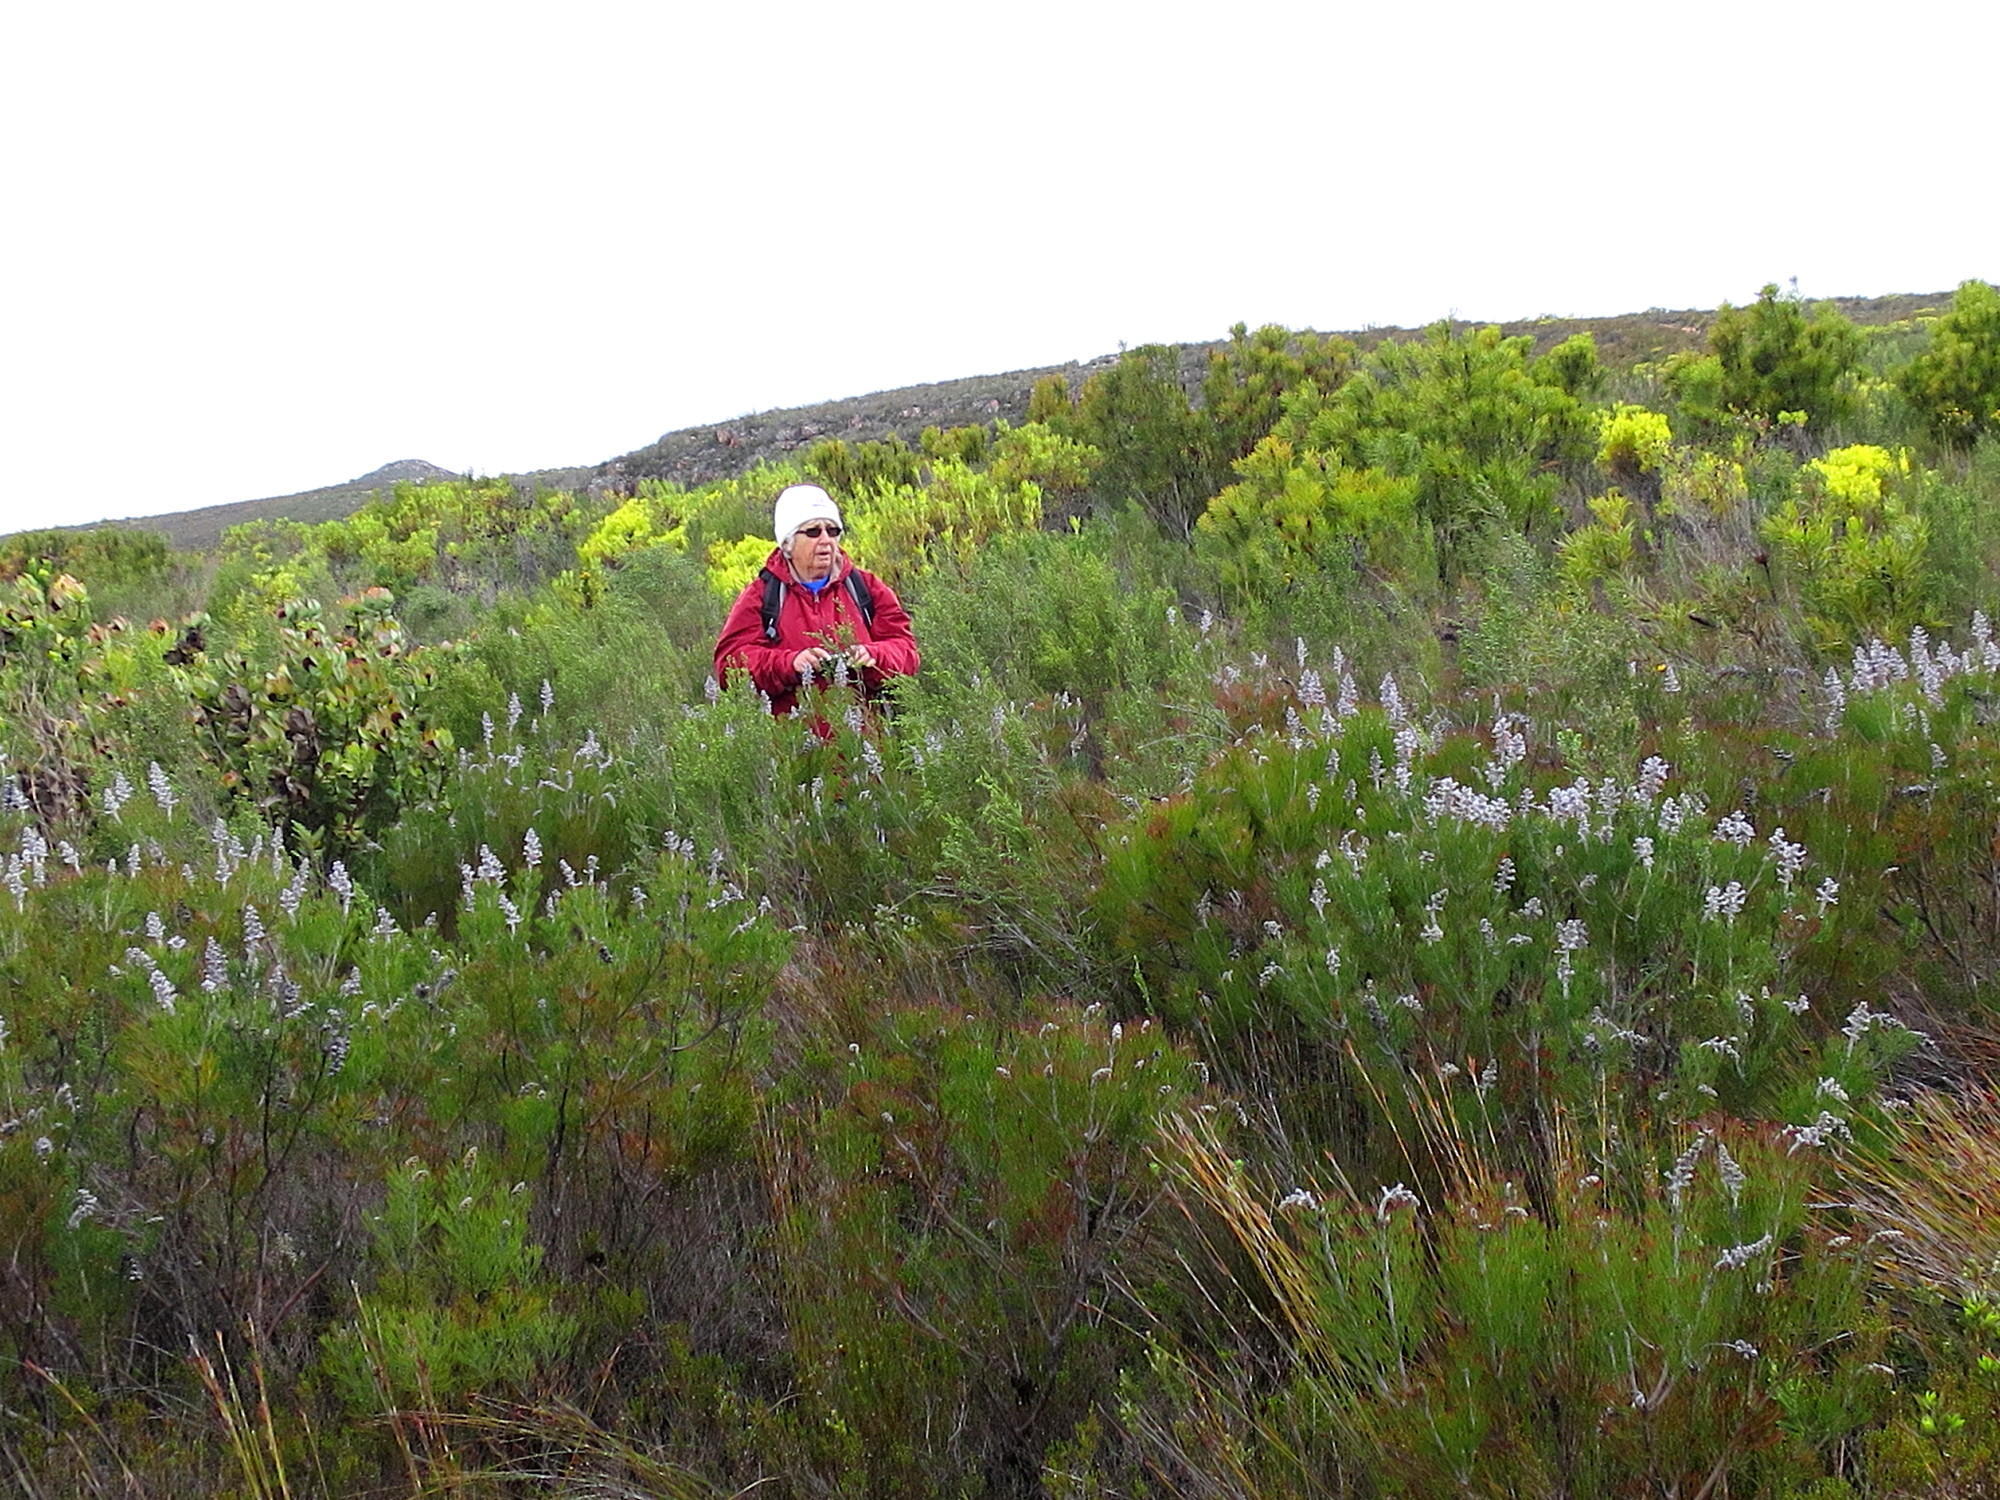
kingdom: Plantae
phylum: Tracheophyta
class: Magnoliopsida
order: Proteales
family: Proteaceae
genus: Paranomus
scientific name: Paranomus dispersus
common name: Long-head sceptre
